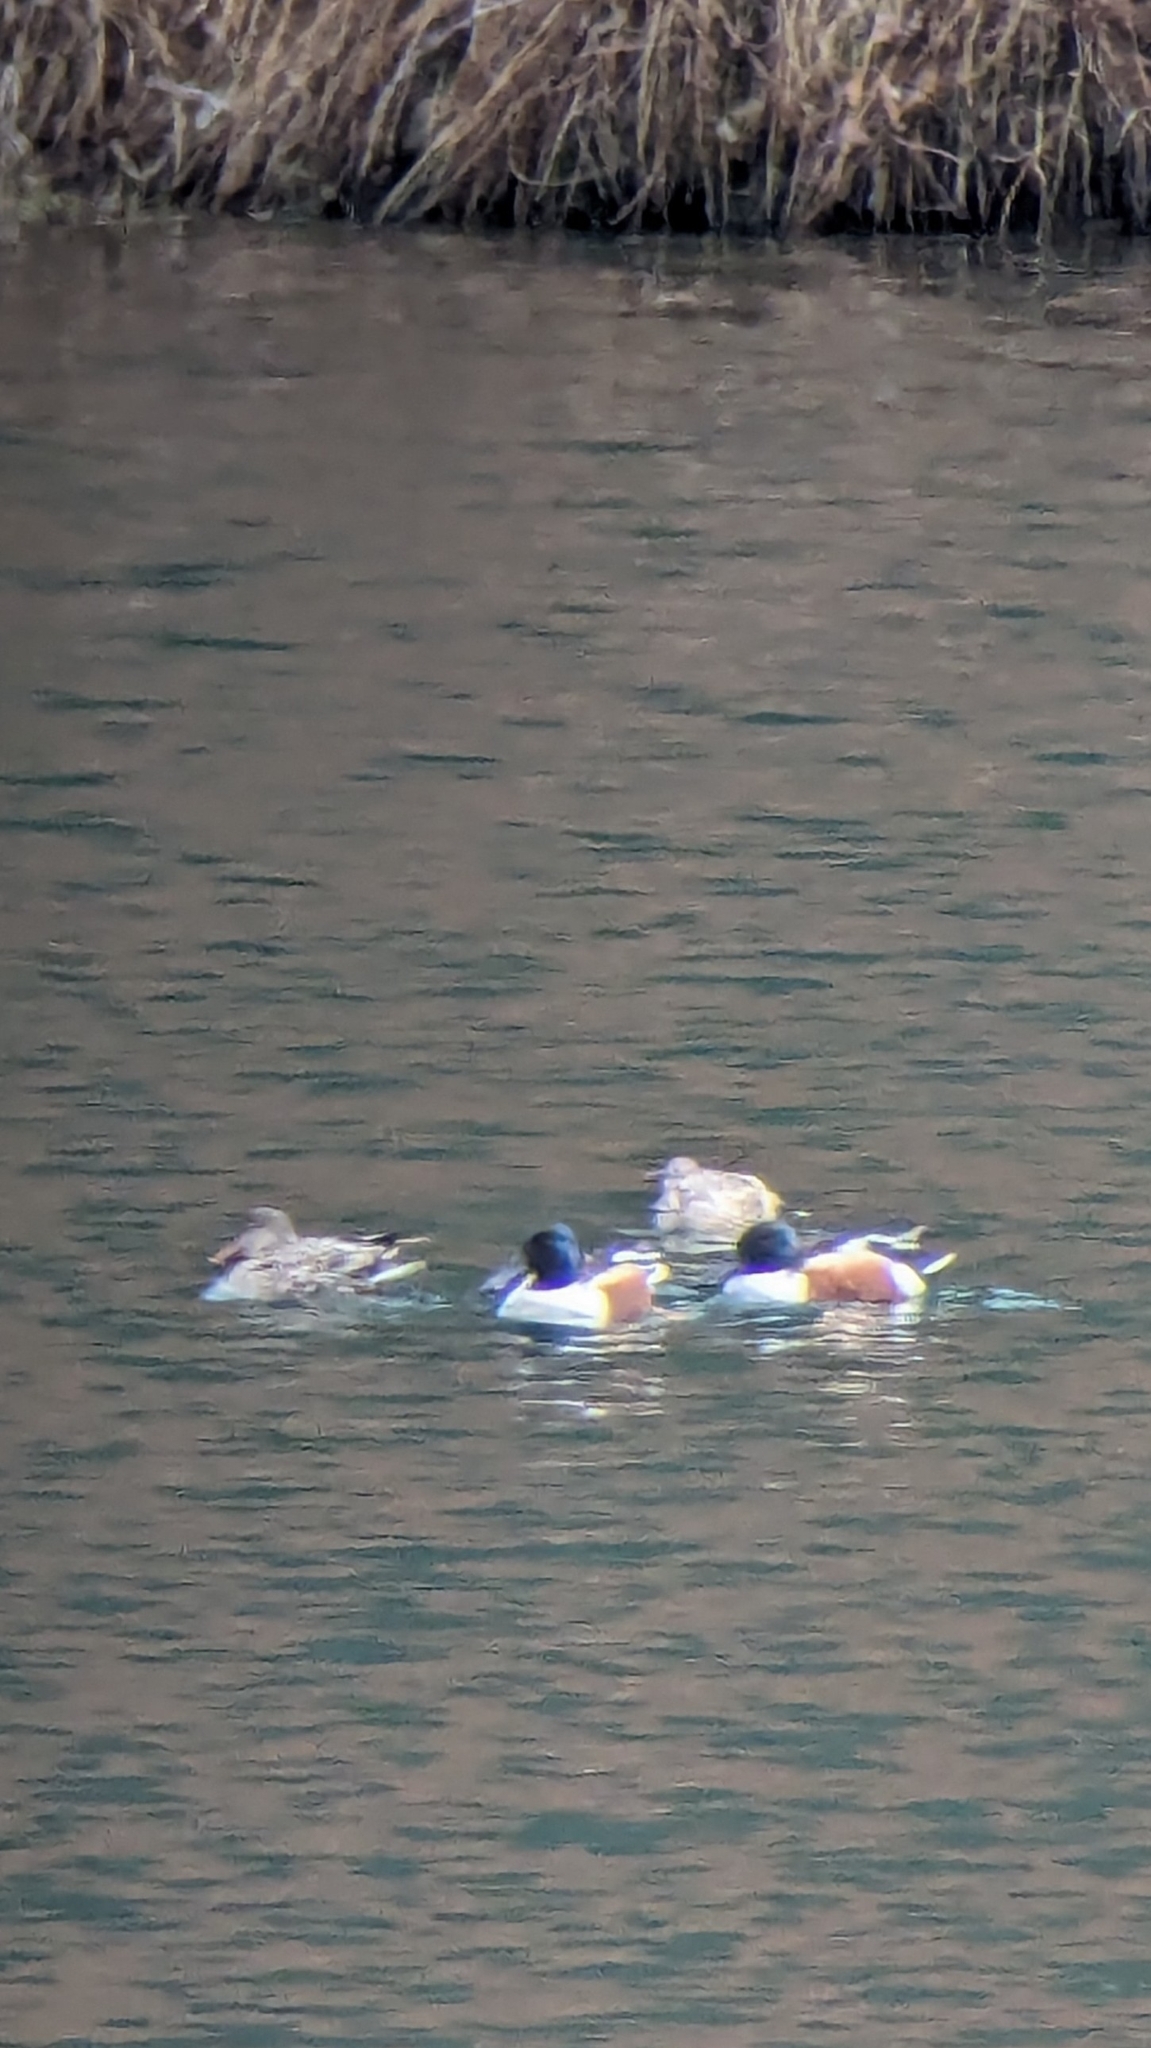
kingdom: Animalia
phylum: Chordata
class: Aves
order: Anseriformes
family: Anatidae
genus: Spatula
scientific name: Spatula clypeata
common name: Northern shoveler
